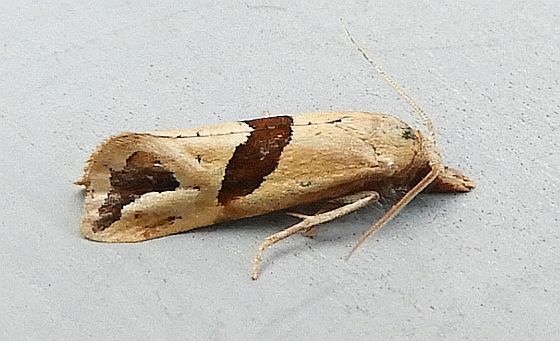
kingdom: Animalia
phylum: Arthropoda
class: Insecta
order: Lepidoptera
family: Tortricidae
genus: Eugnosta
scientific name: Eugnosta sartana
